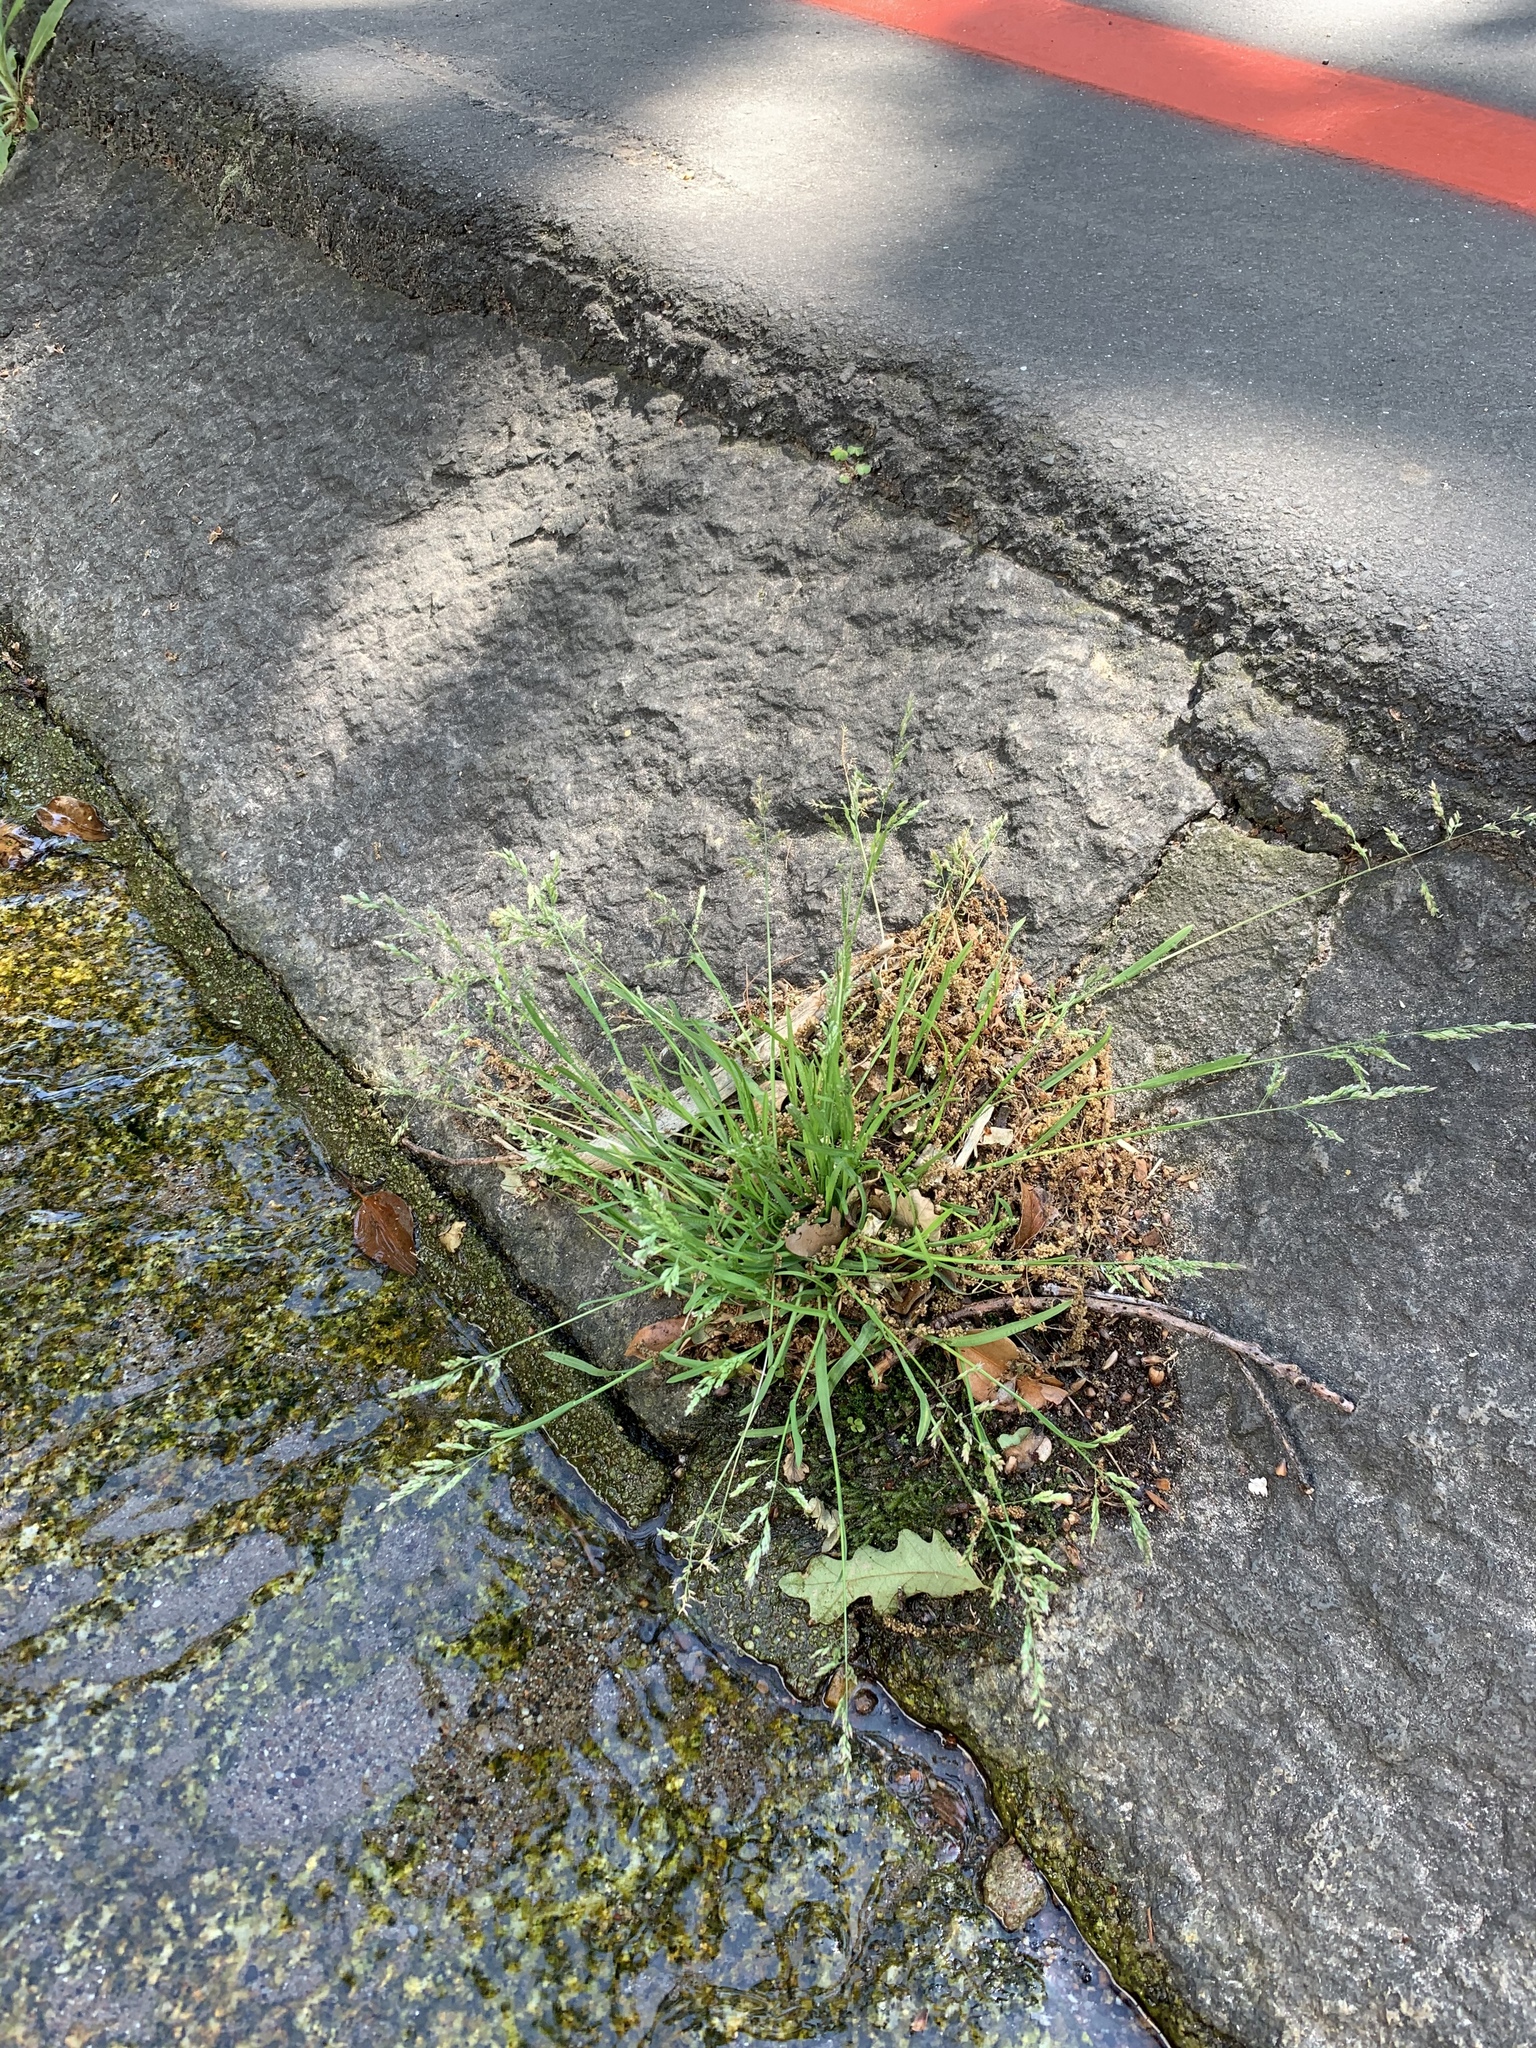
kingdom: Plantae
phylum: Tracheophyta
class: Liliopsida
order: Poales
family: Poaceae
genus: Poa
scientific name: Poa annua
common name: Annual bluegrass
